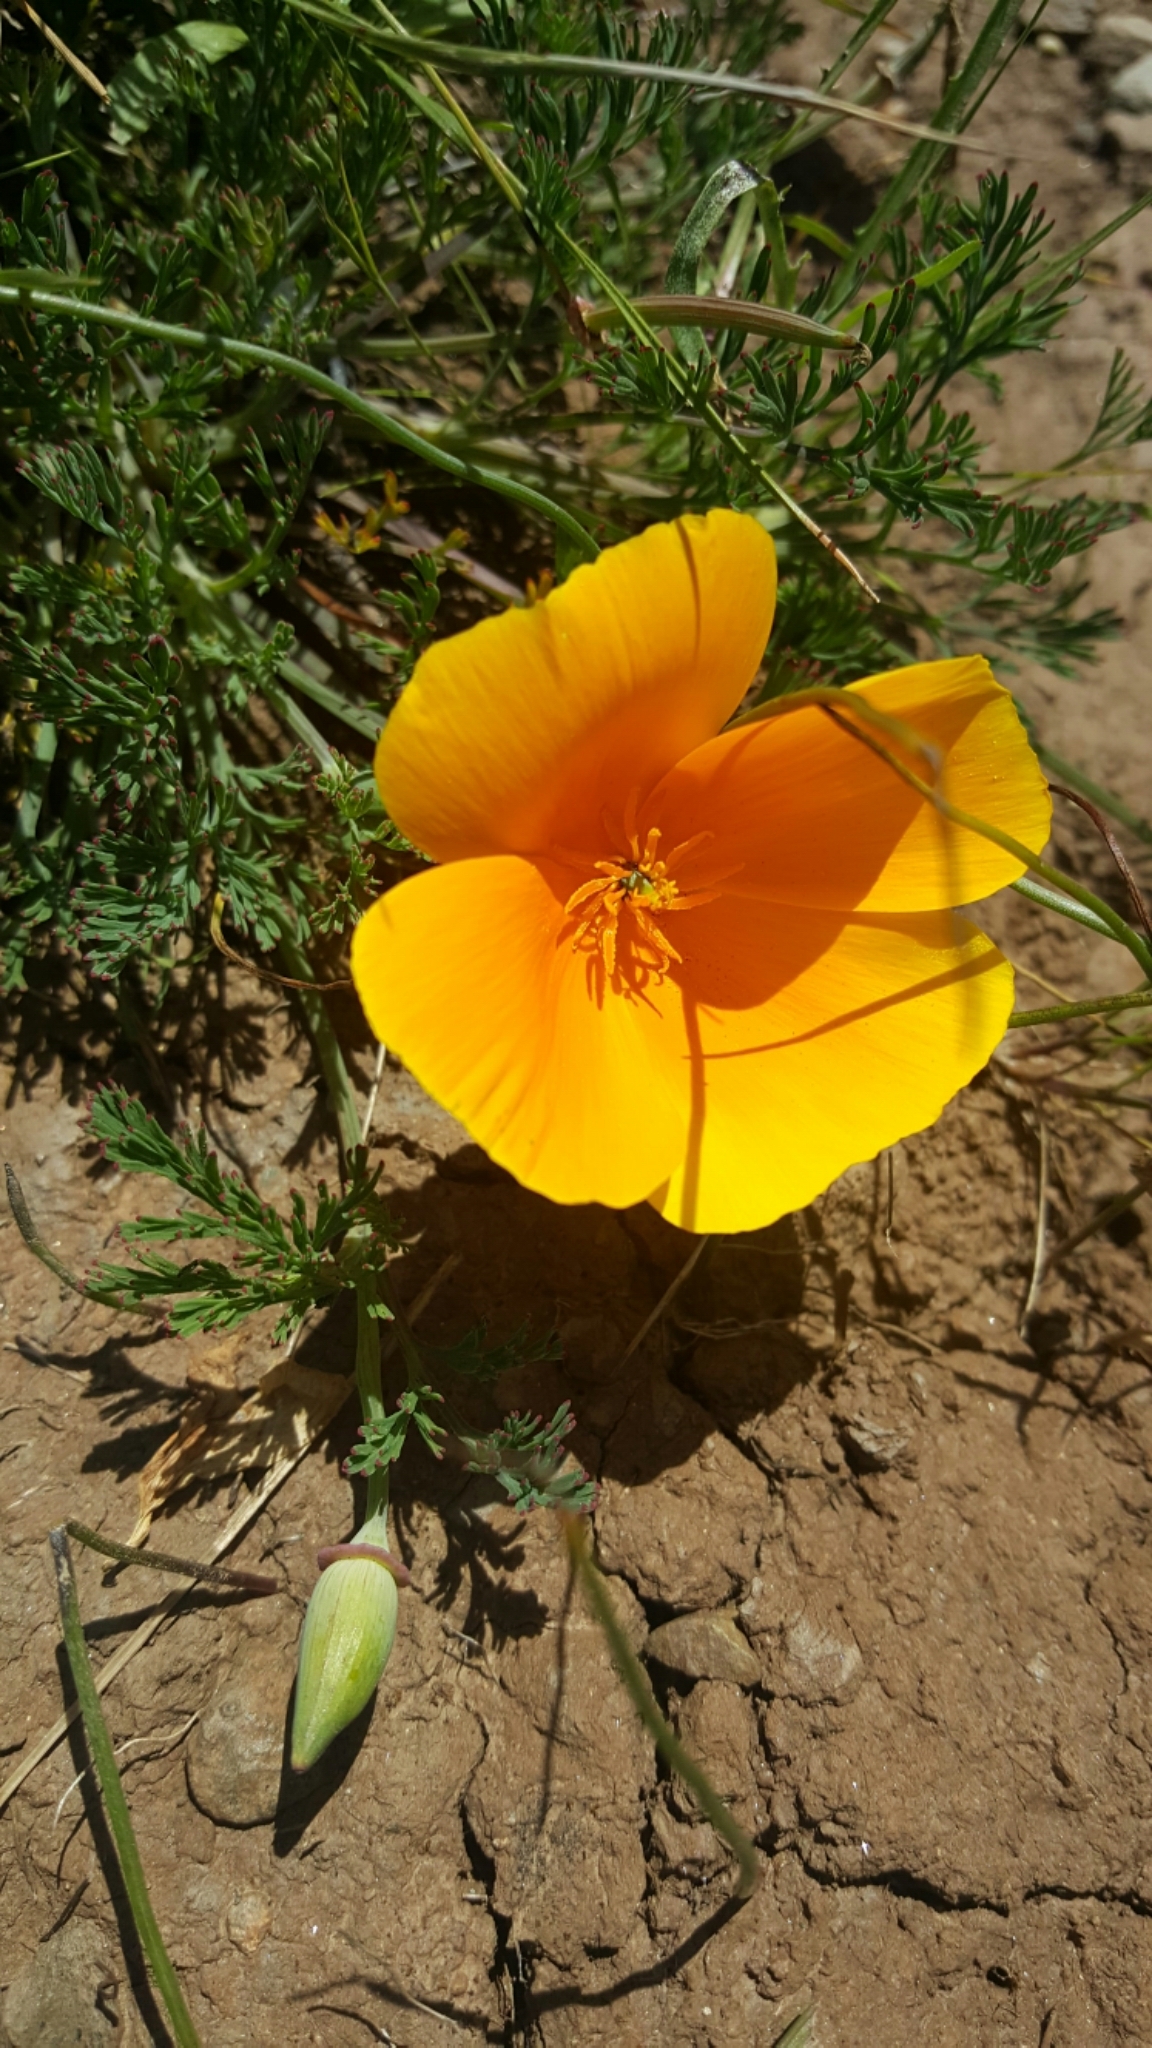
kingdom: Plantae
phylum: Tracheophyta
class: Magnoliopsida
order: Ranunculales
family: Papaveraceae
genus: Eschscholzia
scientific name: Eschscholzia californica
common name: California poppy
